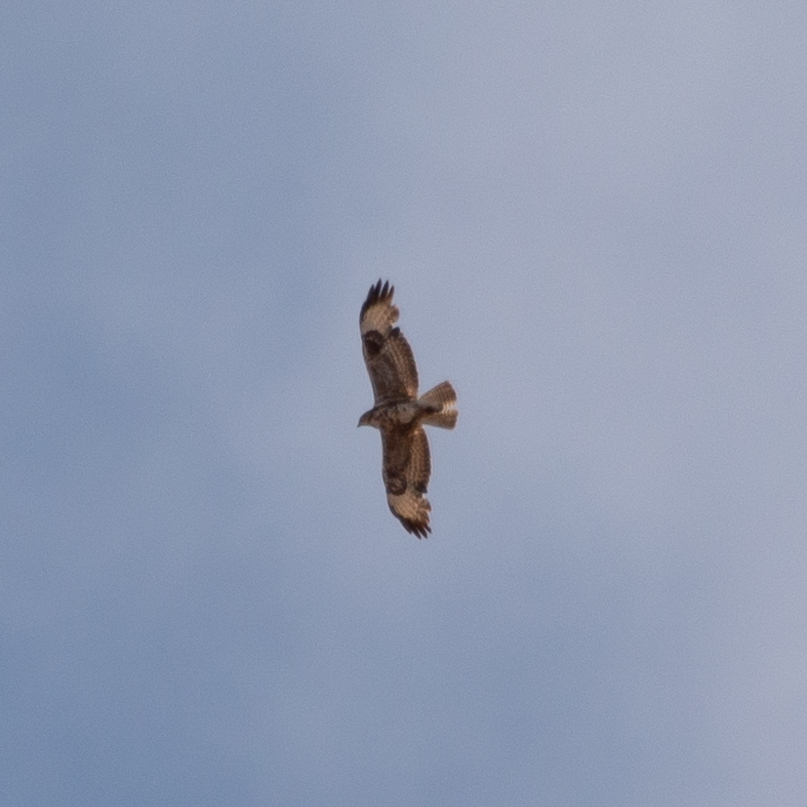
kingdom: Animalia
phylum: Chordata
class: Aves
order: Accipitriformes
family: Accipitridae
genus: Buteo
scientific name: Buteo buteo
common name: Common buzzard
